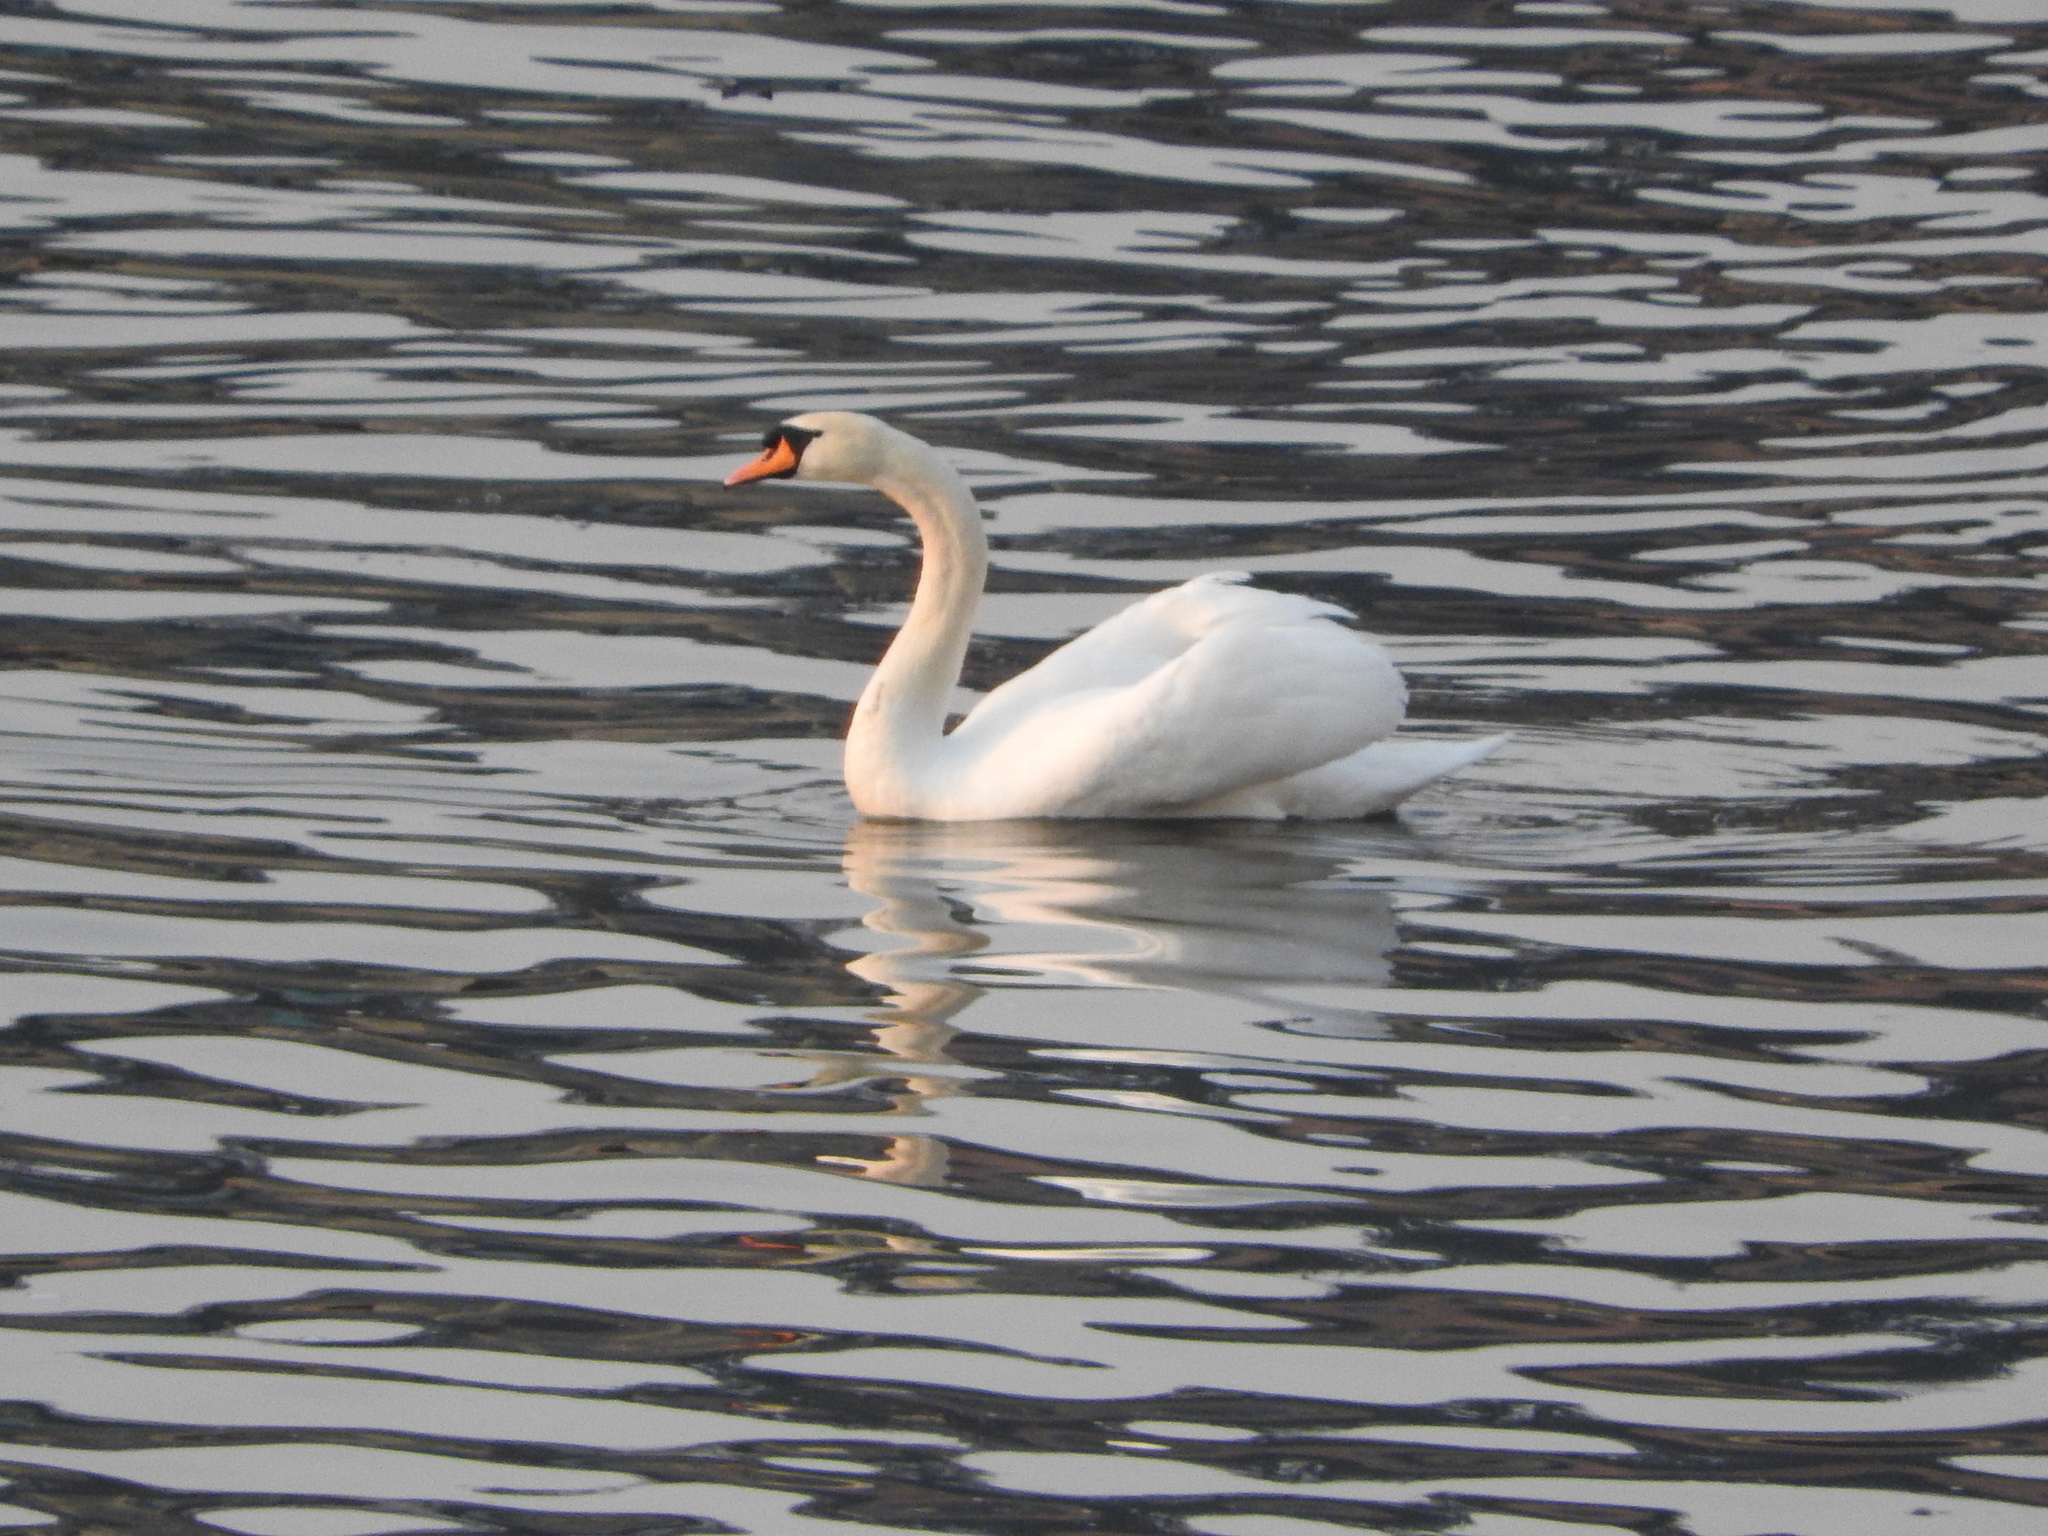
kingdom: Animalia
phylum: Chordata
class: Aves
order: Anseriformes
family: Anatidae
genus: Cygnus
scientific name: Cygnus olor
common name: Mute swan
